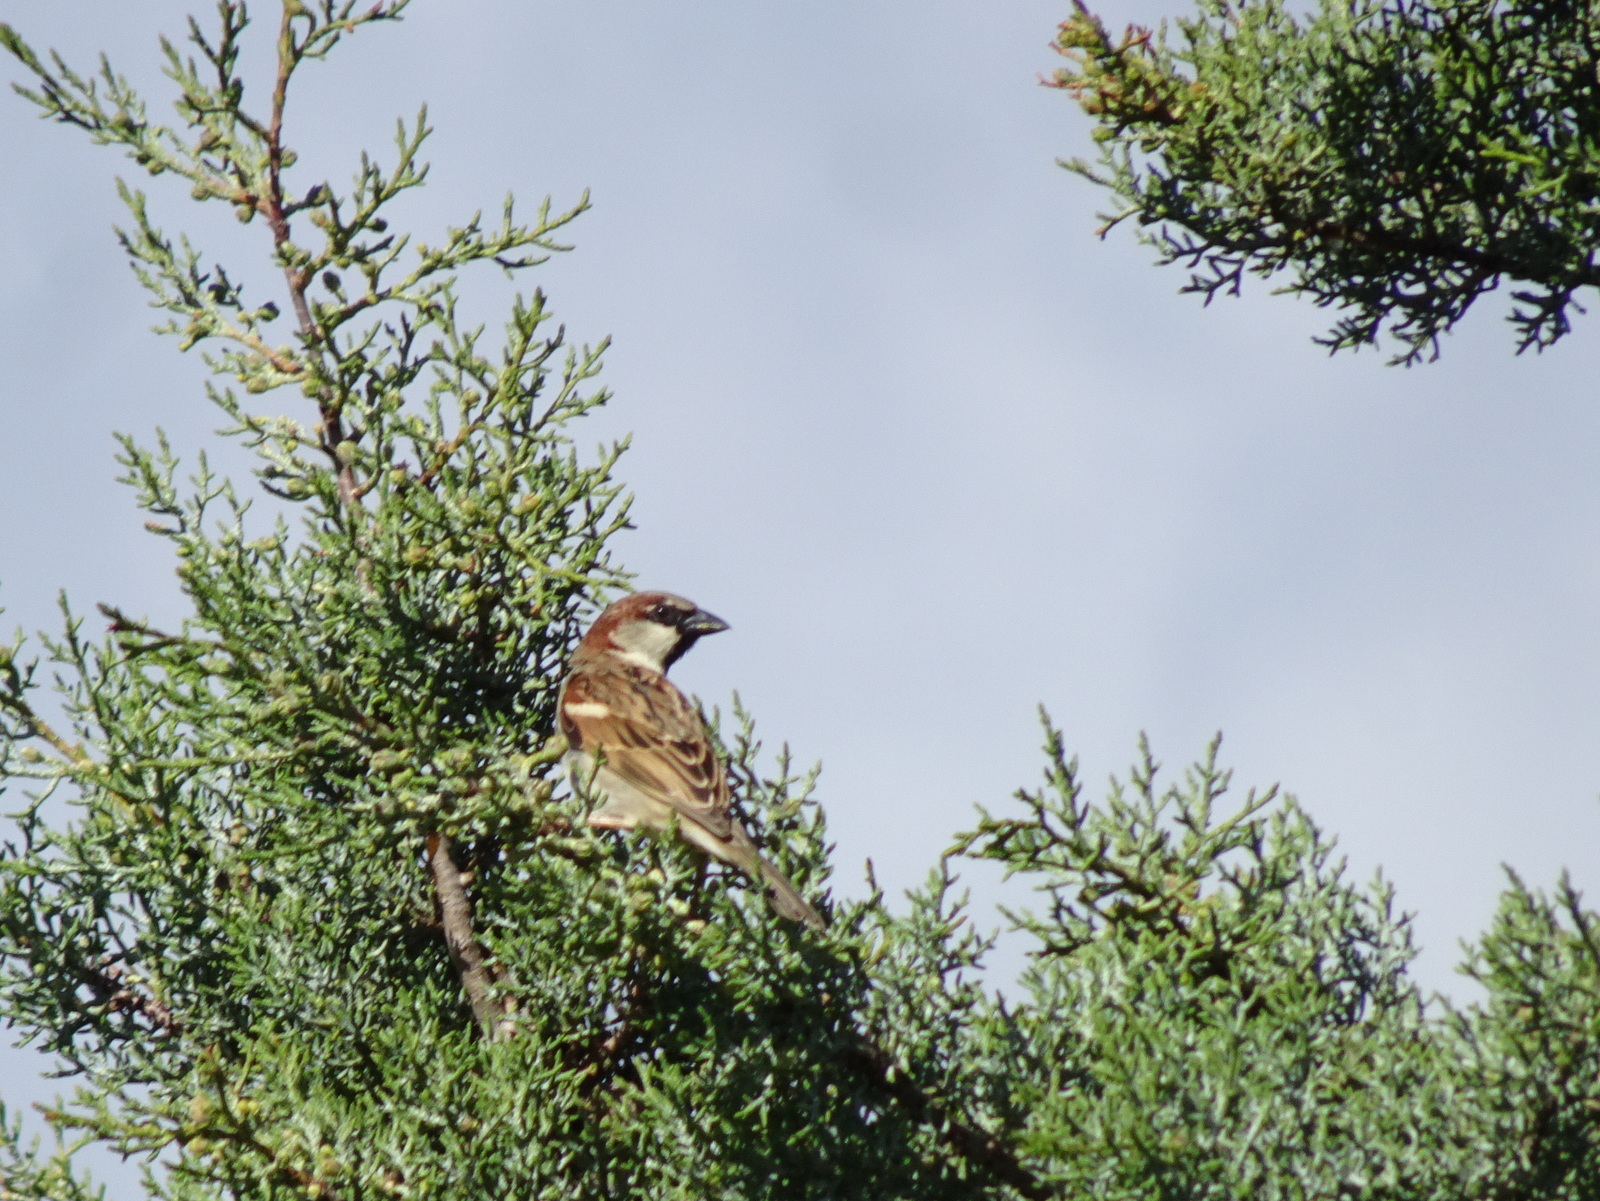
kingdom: Animalia
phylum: Chordata
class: Aves
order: Passeriformes
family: Passeridae
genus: Passer
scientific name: Passer domesticus
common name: House sparrow
